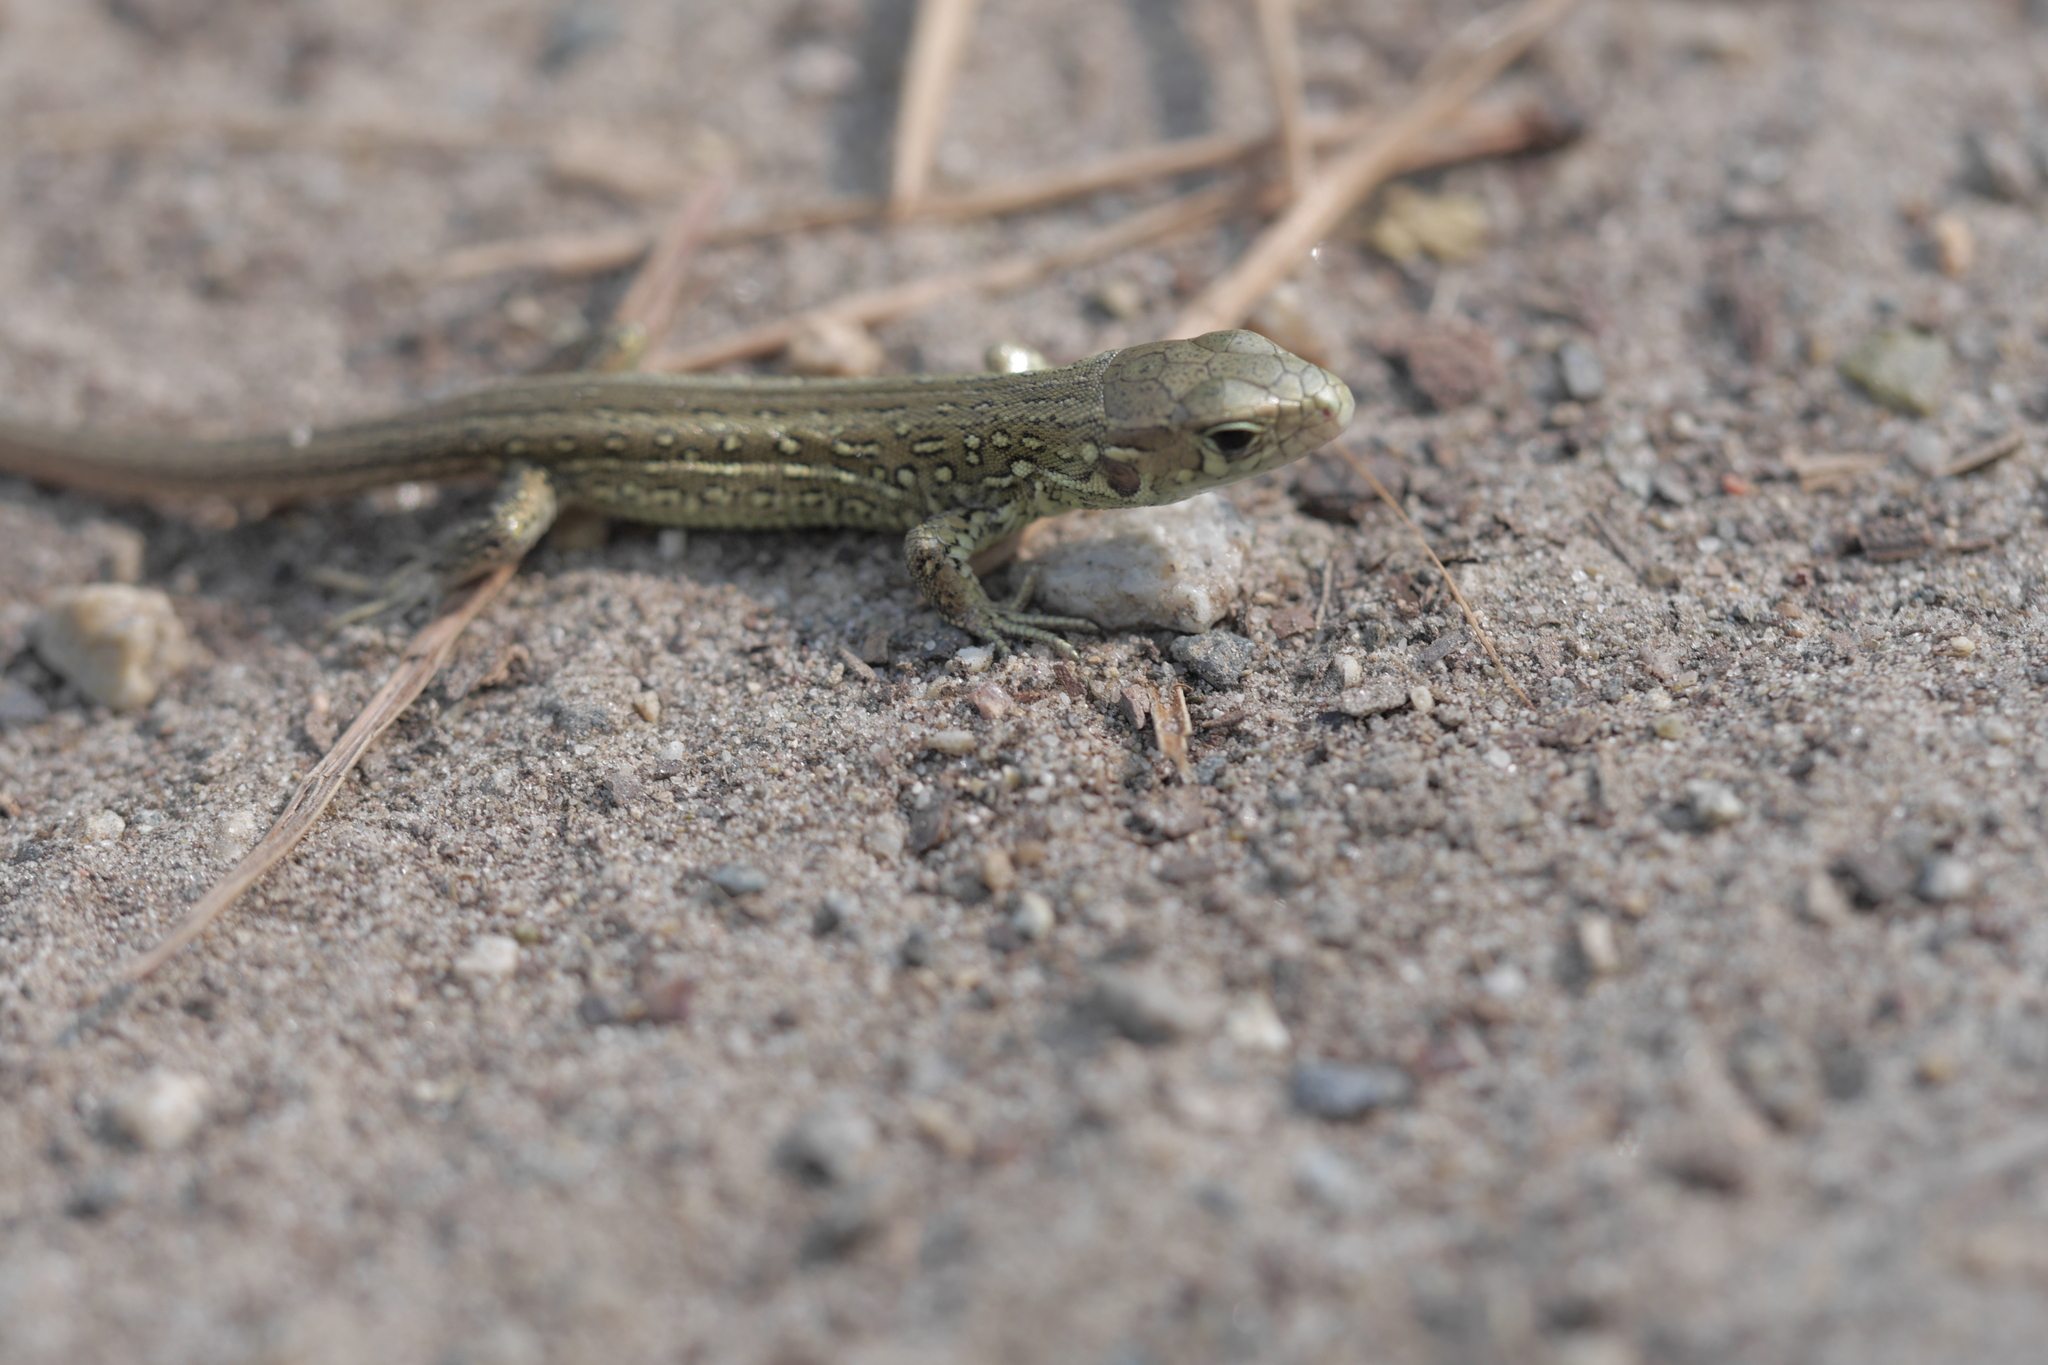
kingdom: Animalia
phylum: Chordata
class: Squamata
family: Lacertidae
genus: Lacerta
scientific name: Lacerta agilis
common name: Sand lizard
